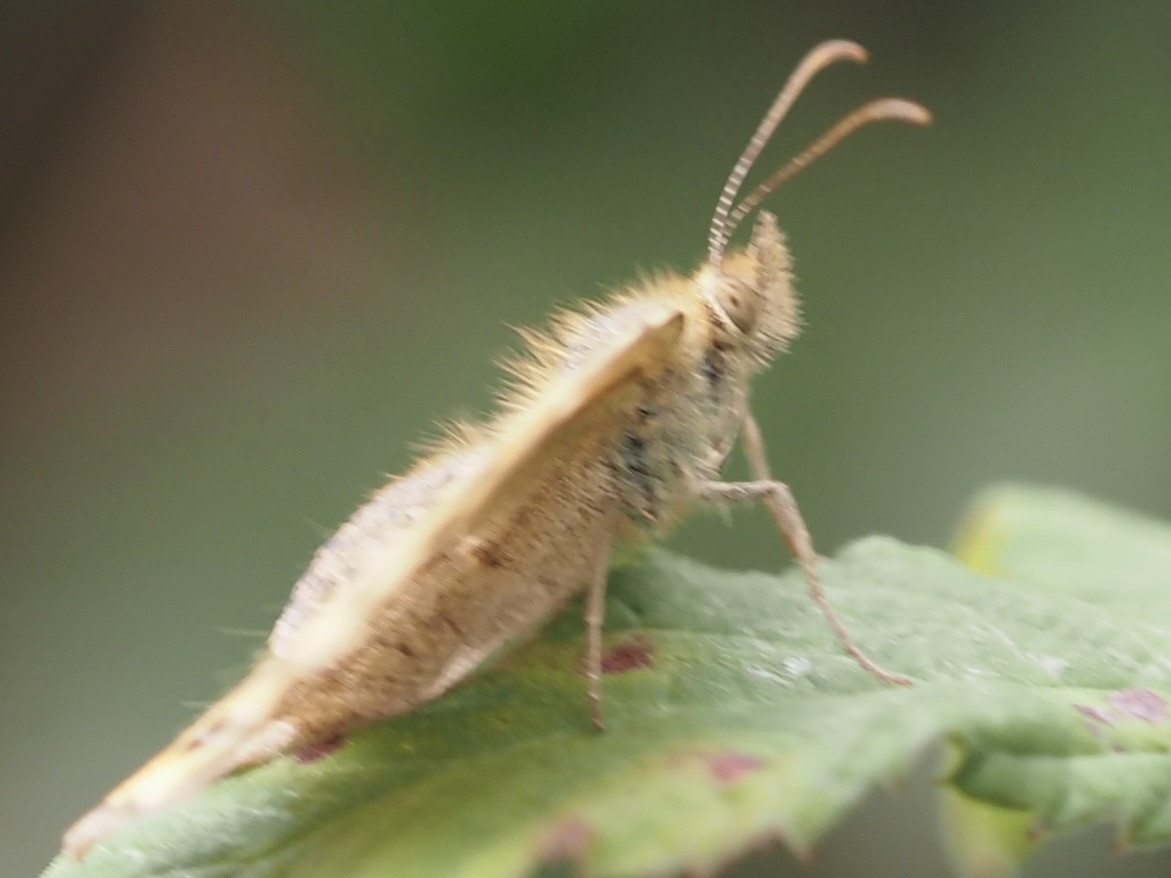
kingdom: Animalia
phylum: Arthropoda
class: Insecta
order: Lepidoptera
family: Nymphalidae
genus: Pararge
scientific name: Pararge aegeria
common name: Speckled wood
